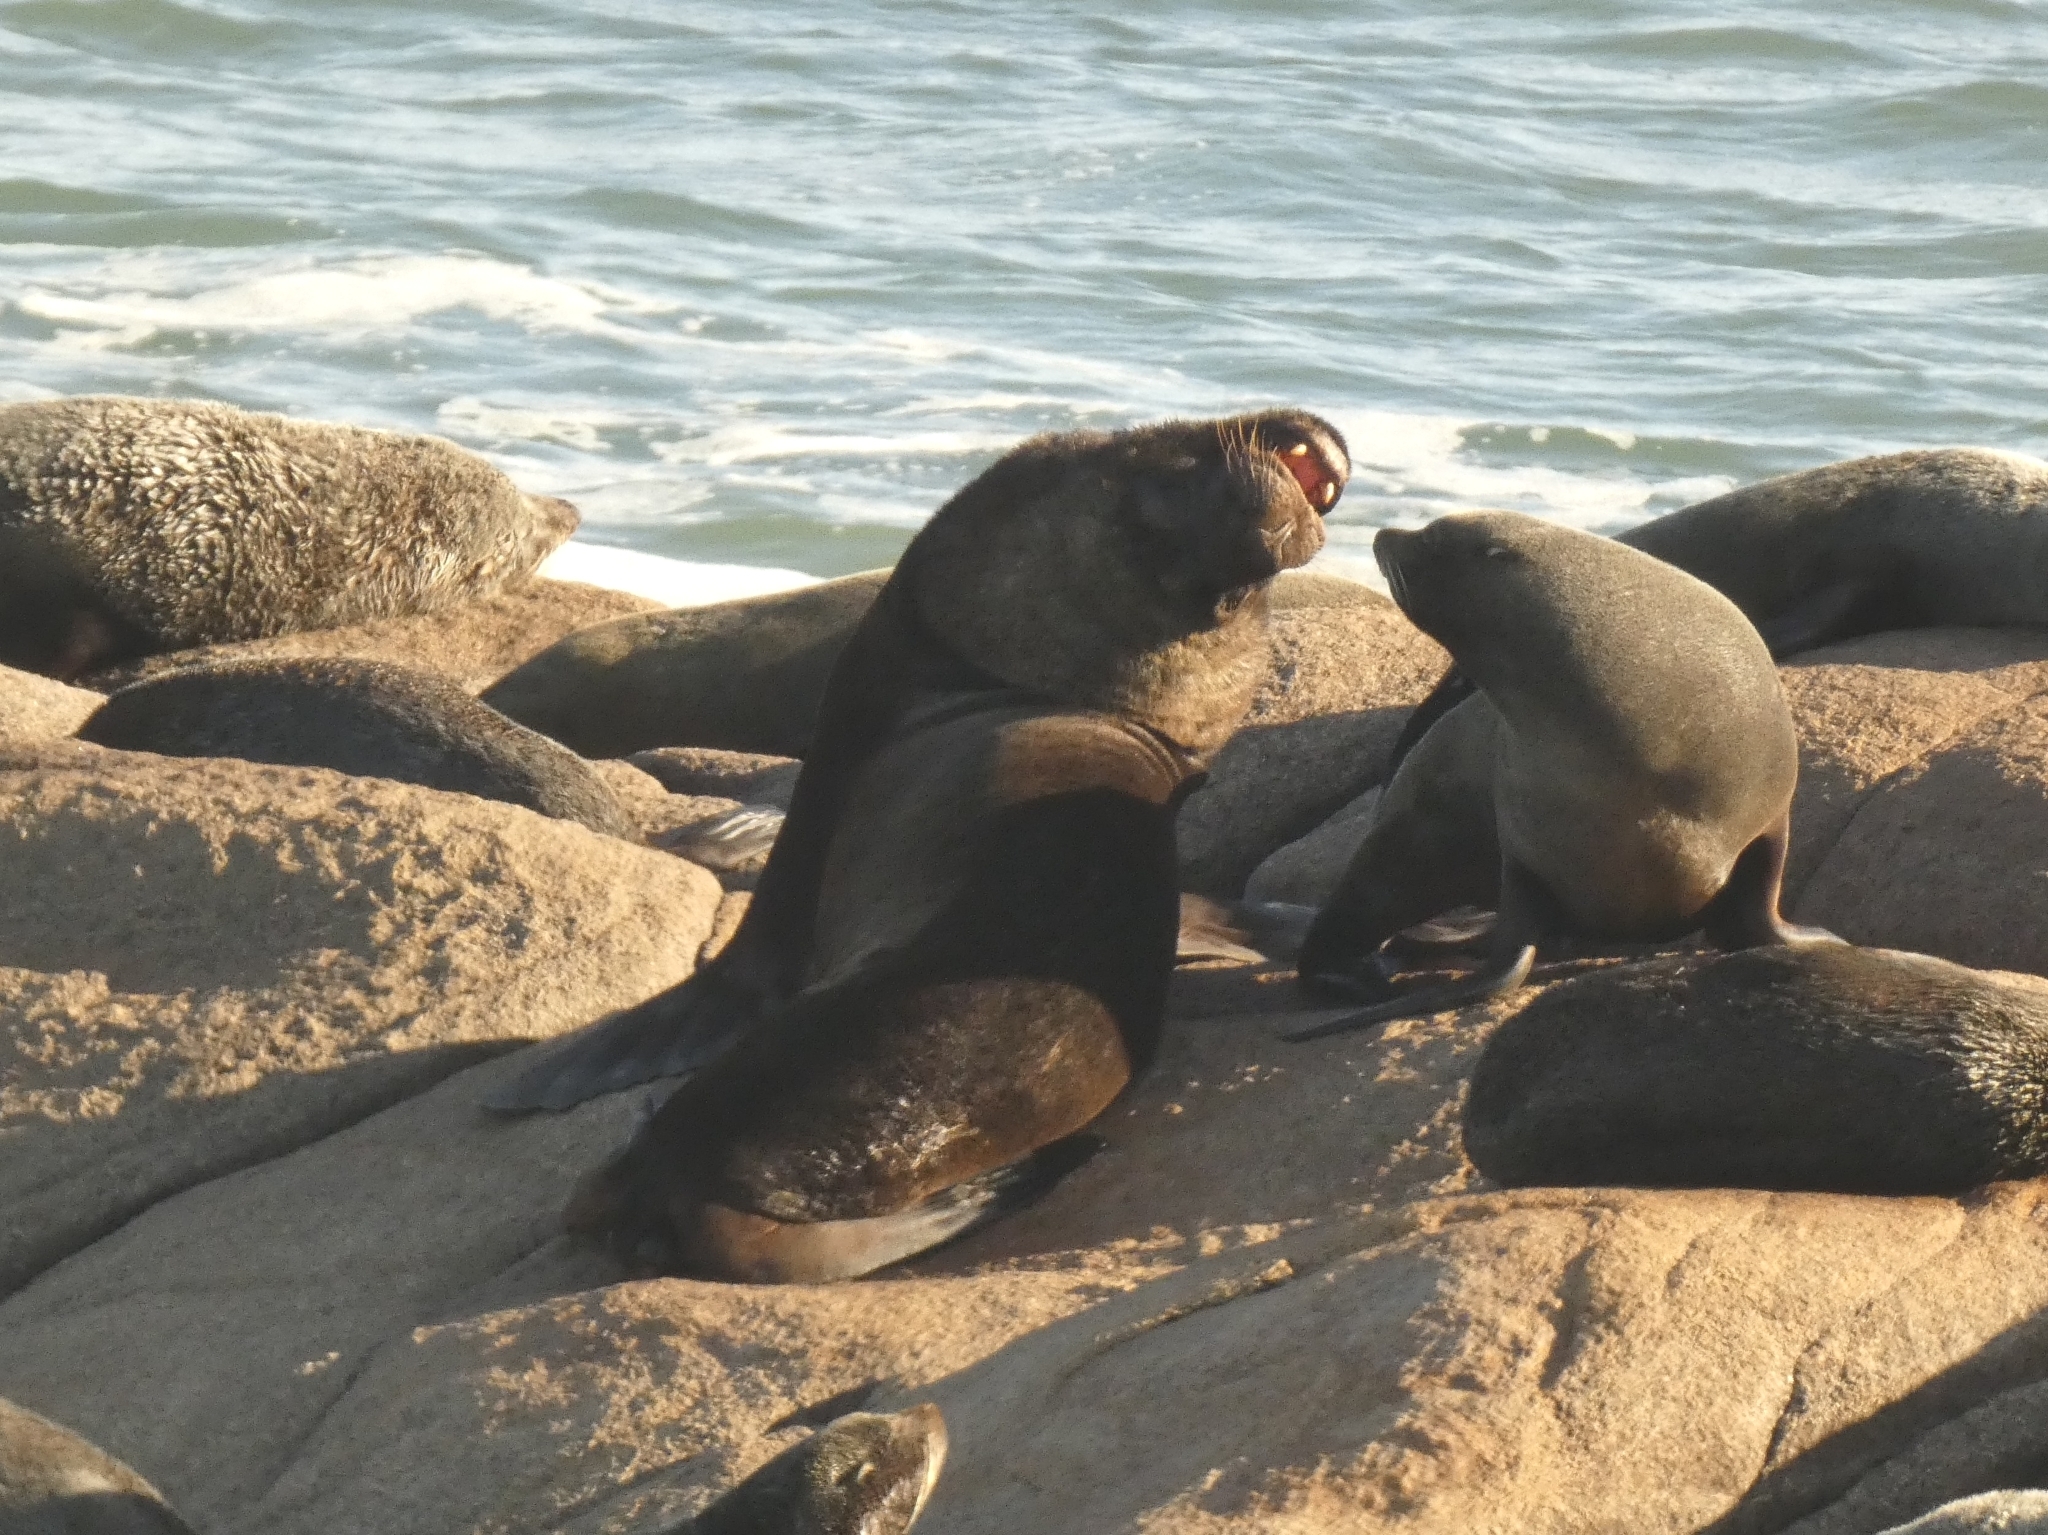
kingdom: Animalia
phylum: Chordata
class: Mammalia
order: Carnivora
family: Otariidae
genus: Otaria
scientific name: Otaria byronia
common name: South american sea lion
